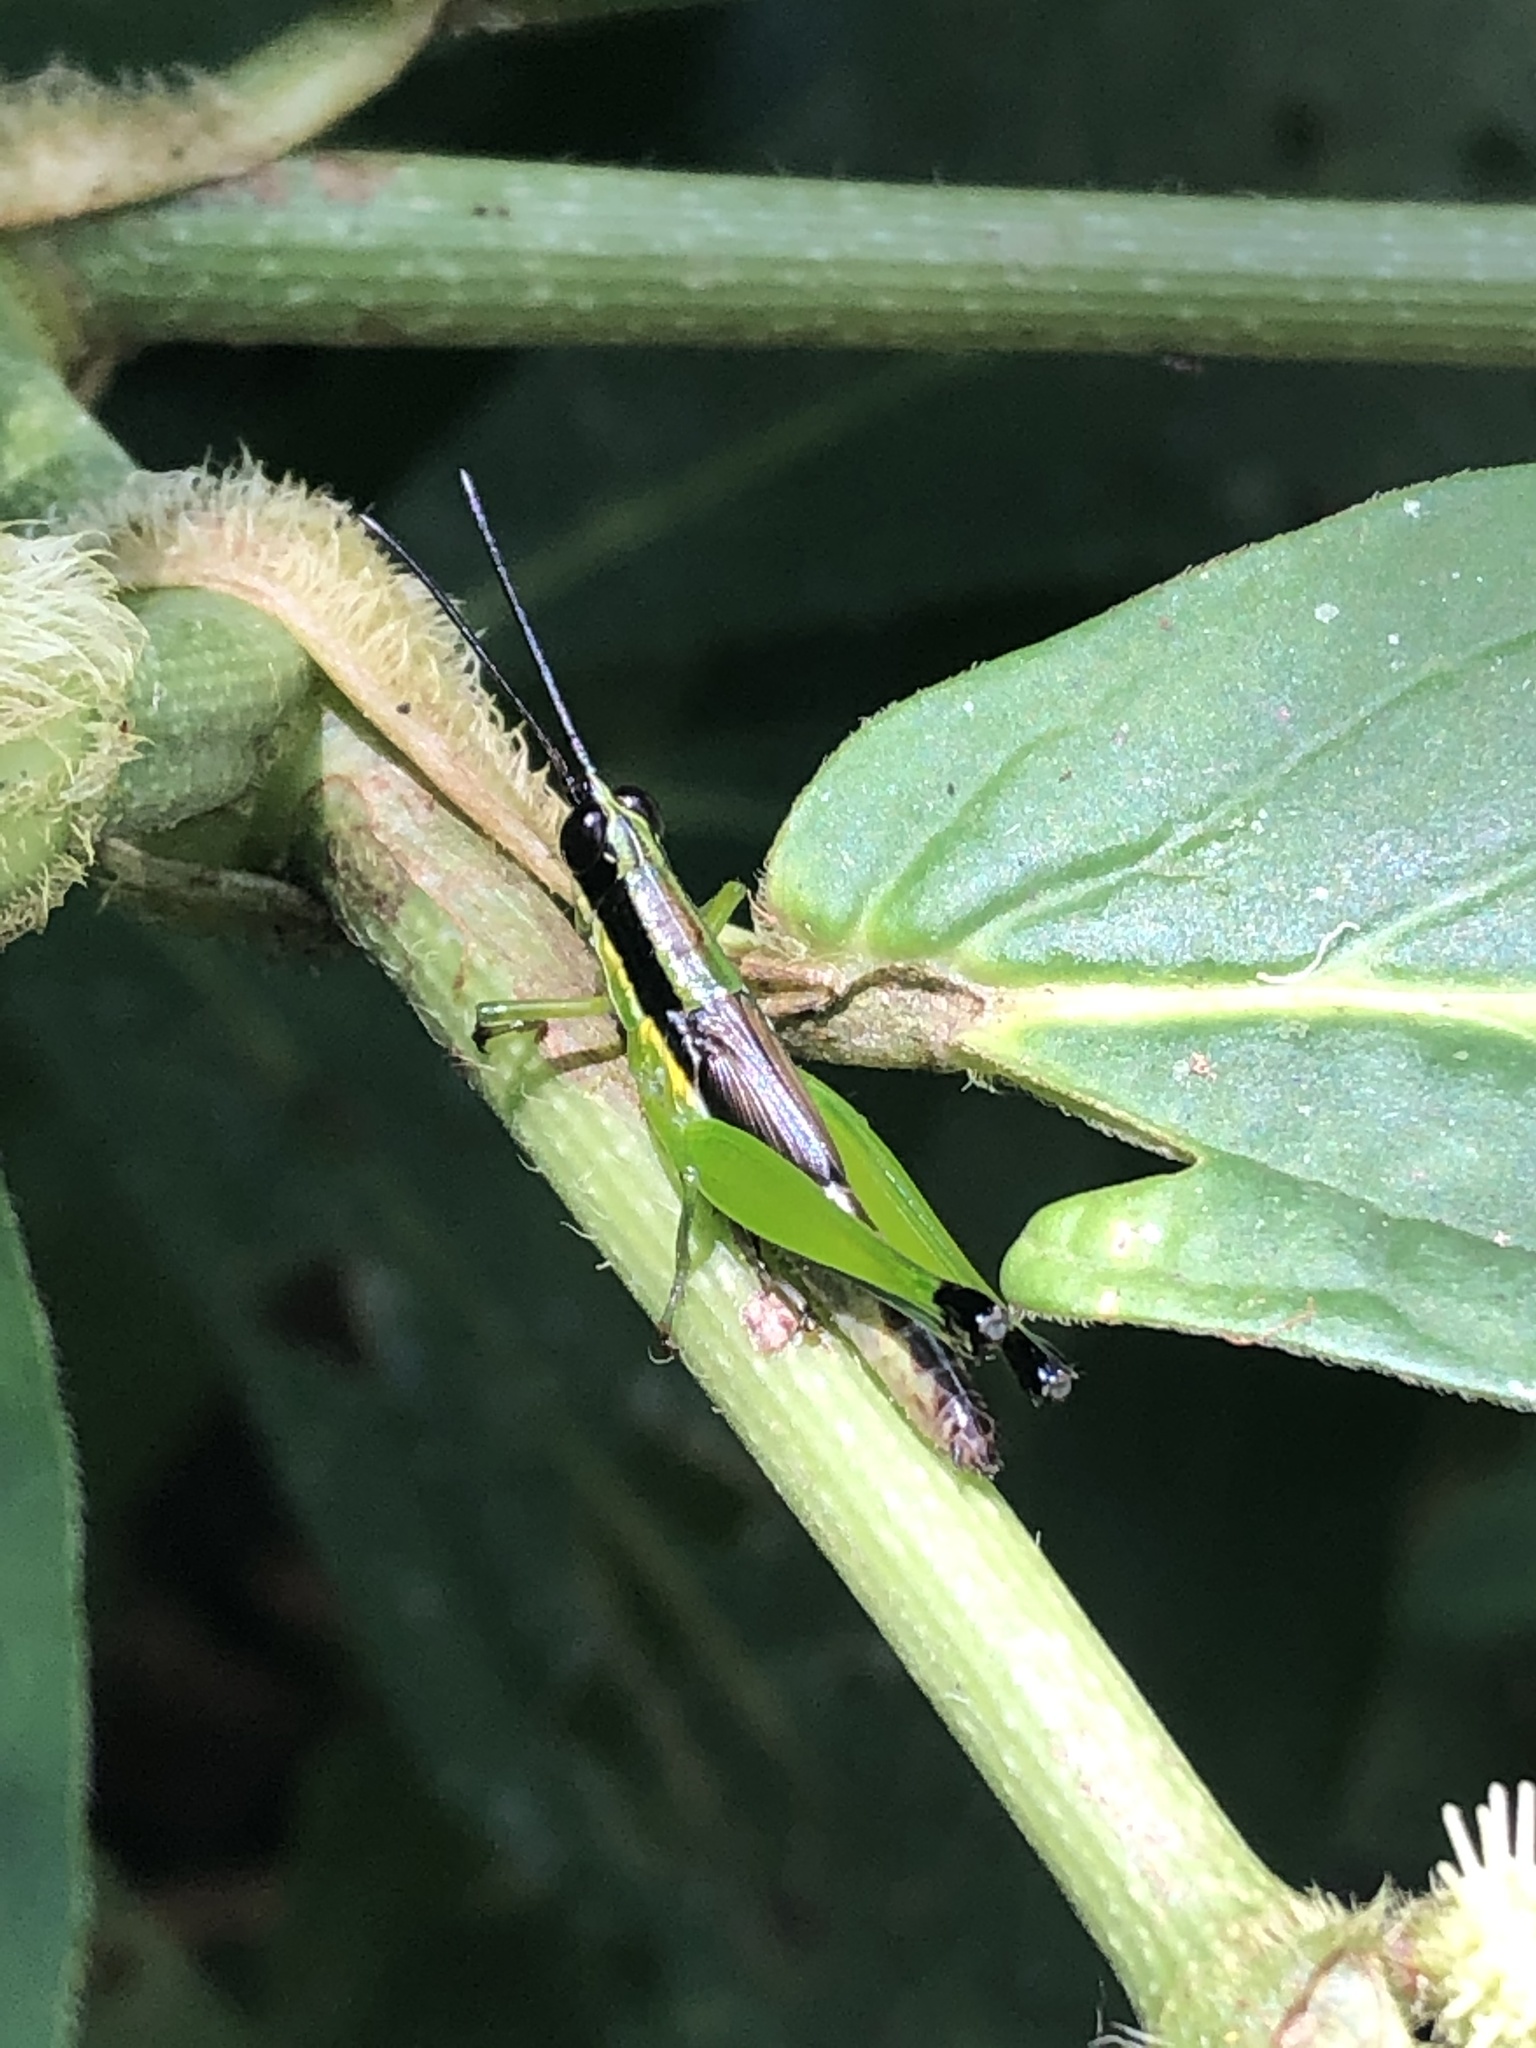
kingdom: Animalia
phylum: Arthropoda
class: Insecta
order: Orthoptera
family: Acrididae
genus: Stenopola
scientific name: Stenopola boliviana
